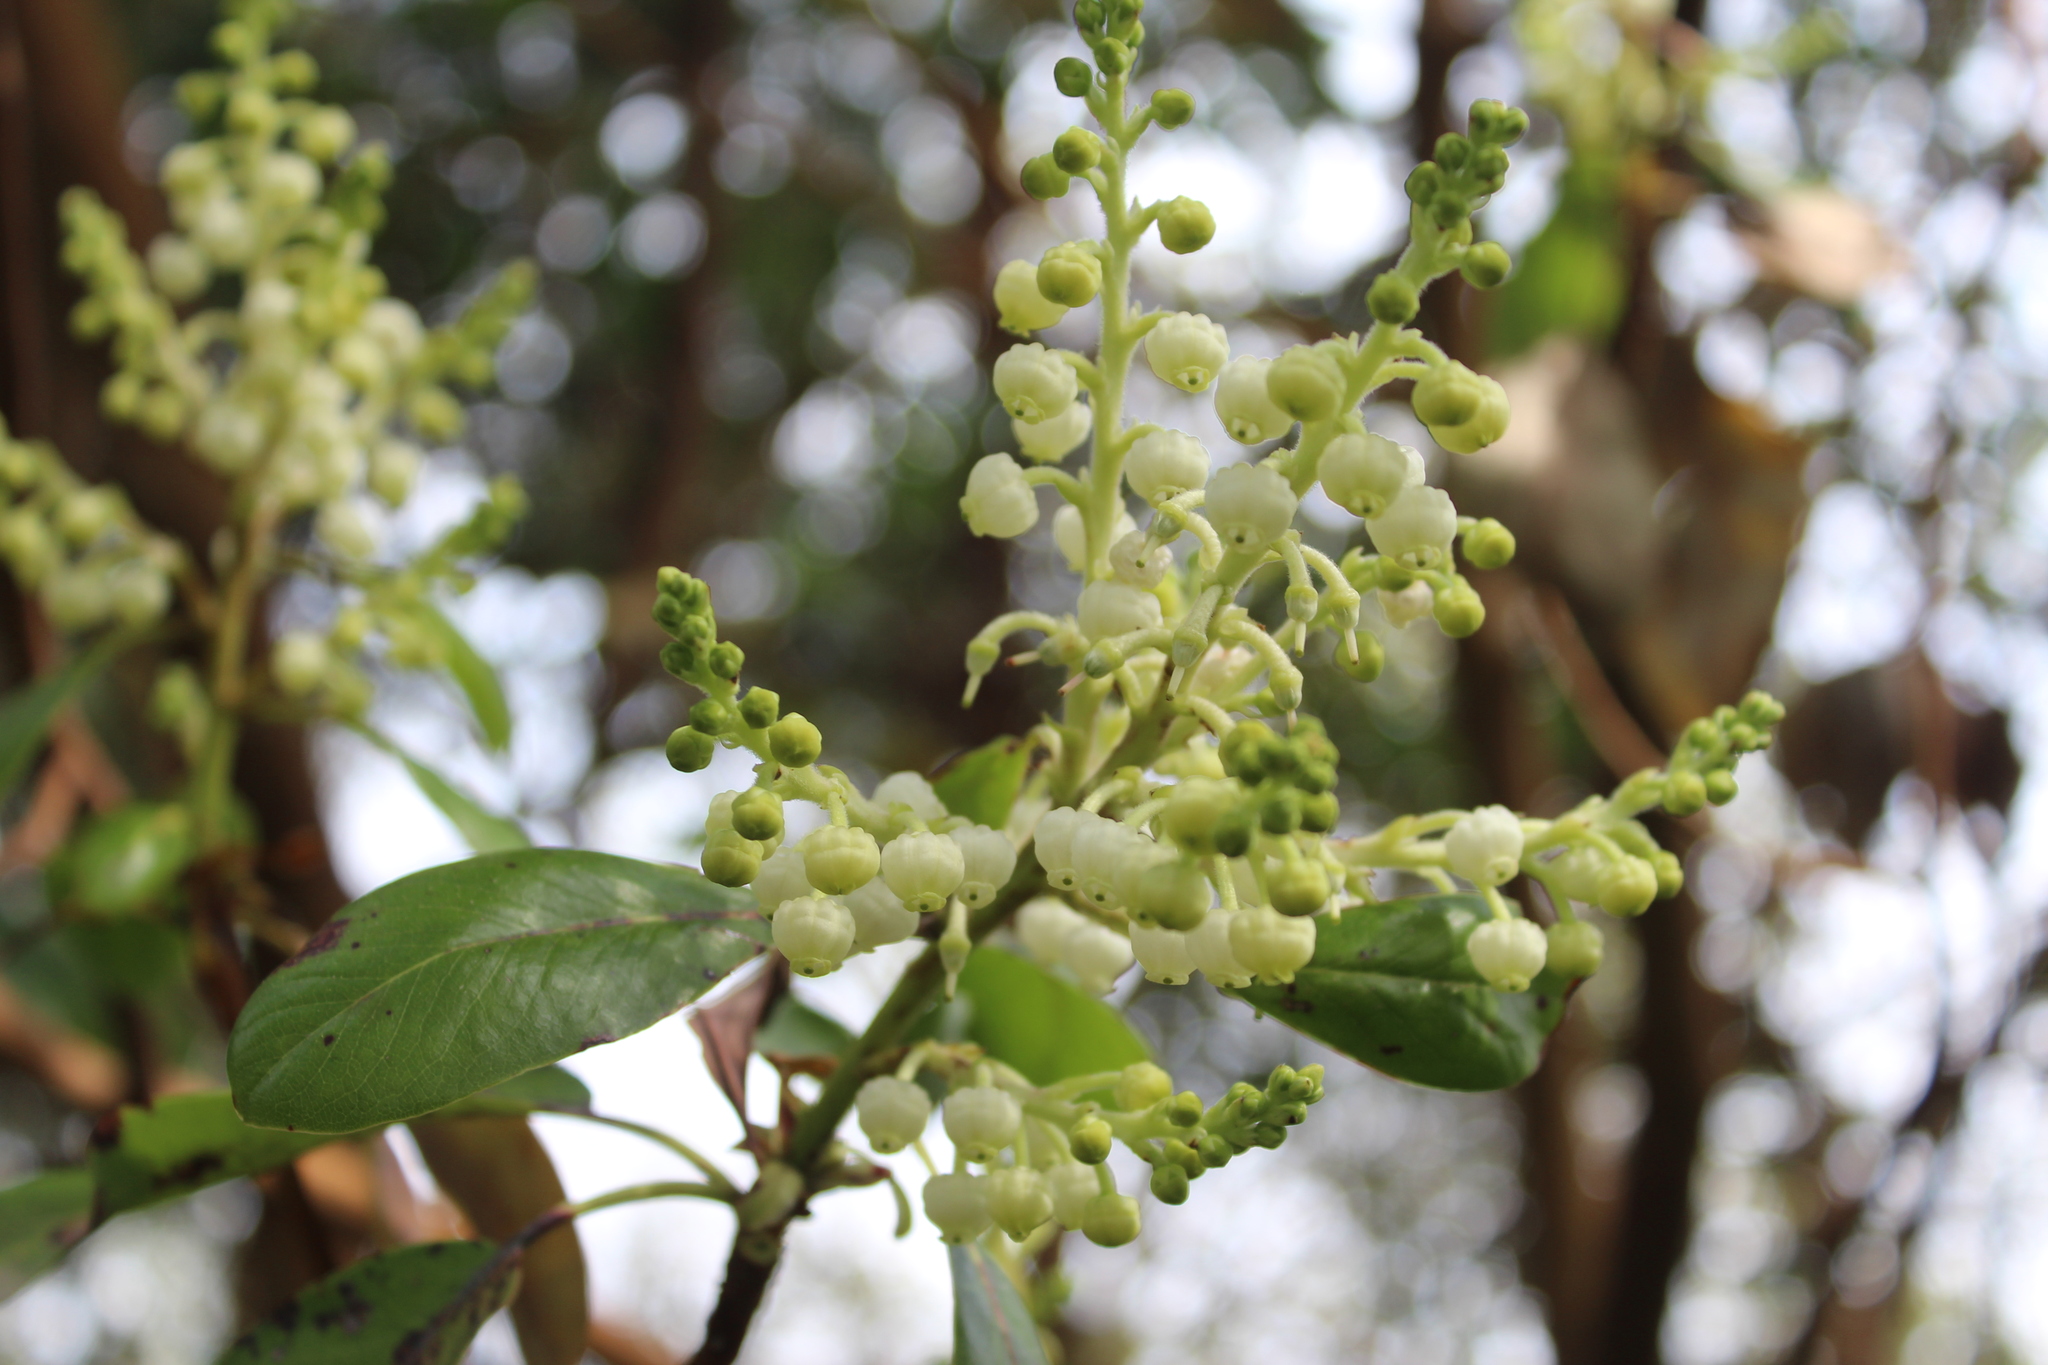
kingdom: Plantae
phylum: Tracheophyta
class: Magnoliopsida
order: Ericales
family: Ericaceae
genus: Arbutus
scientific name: Arbutus menziesii
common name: Pacific madrone
